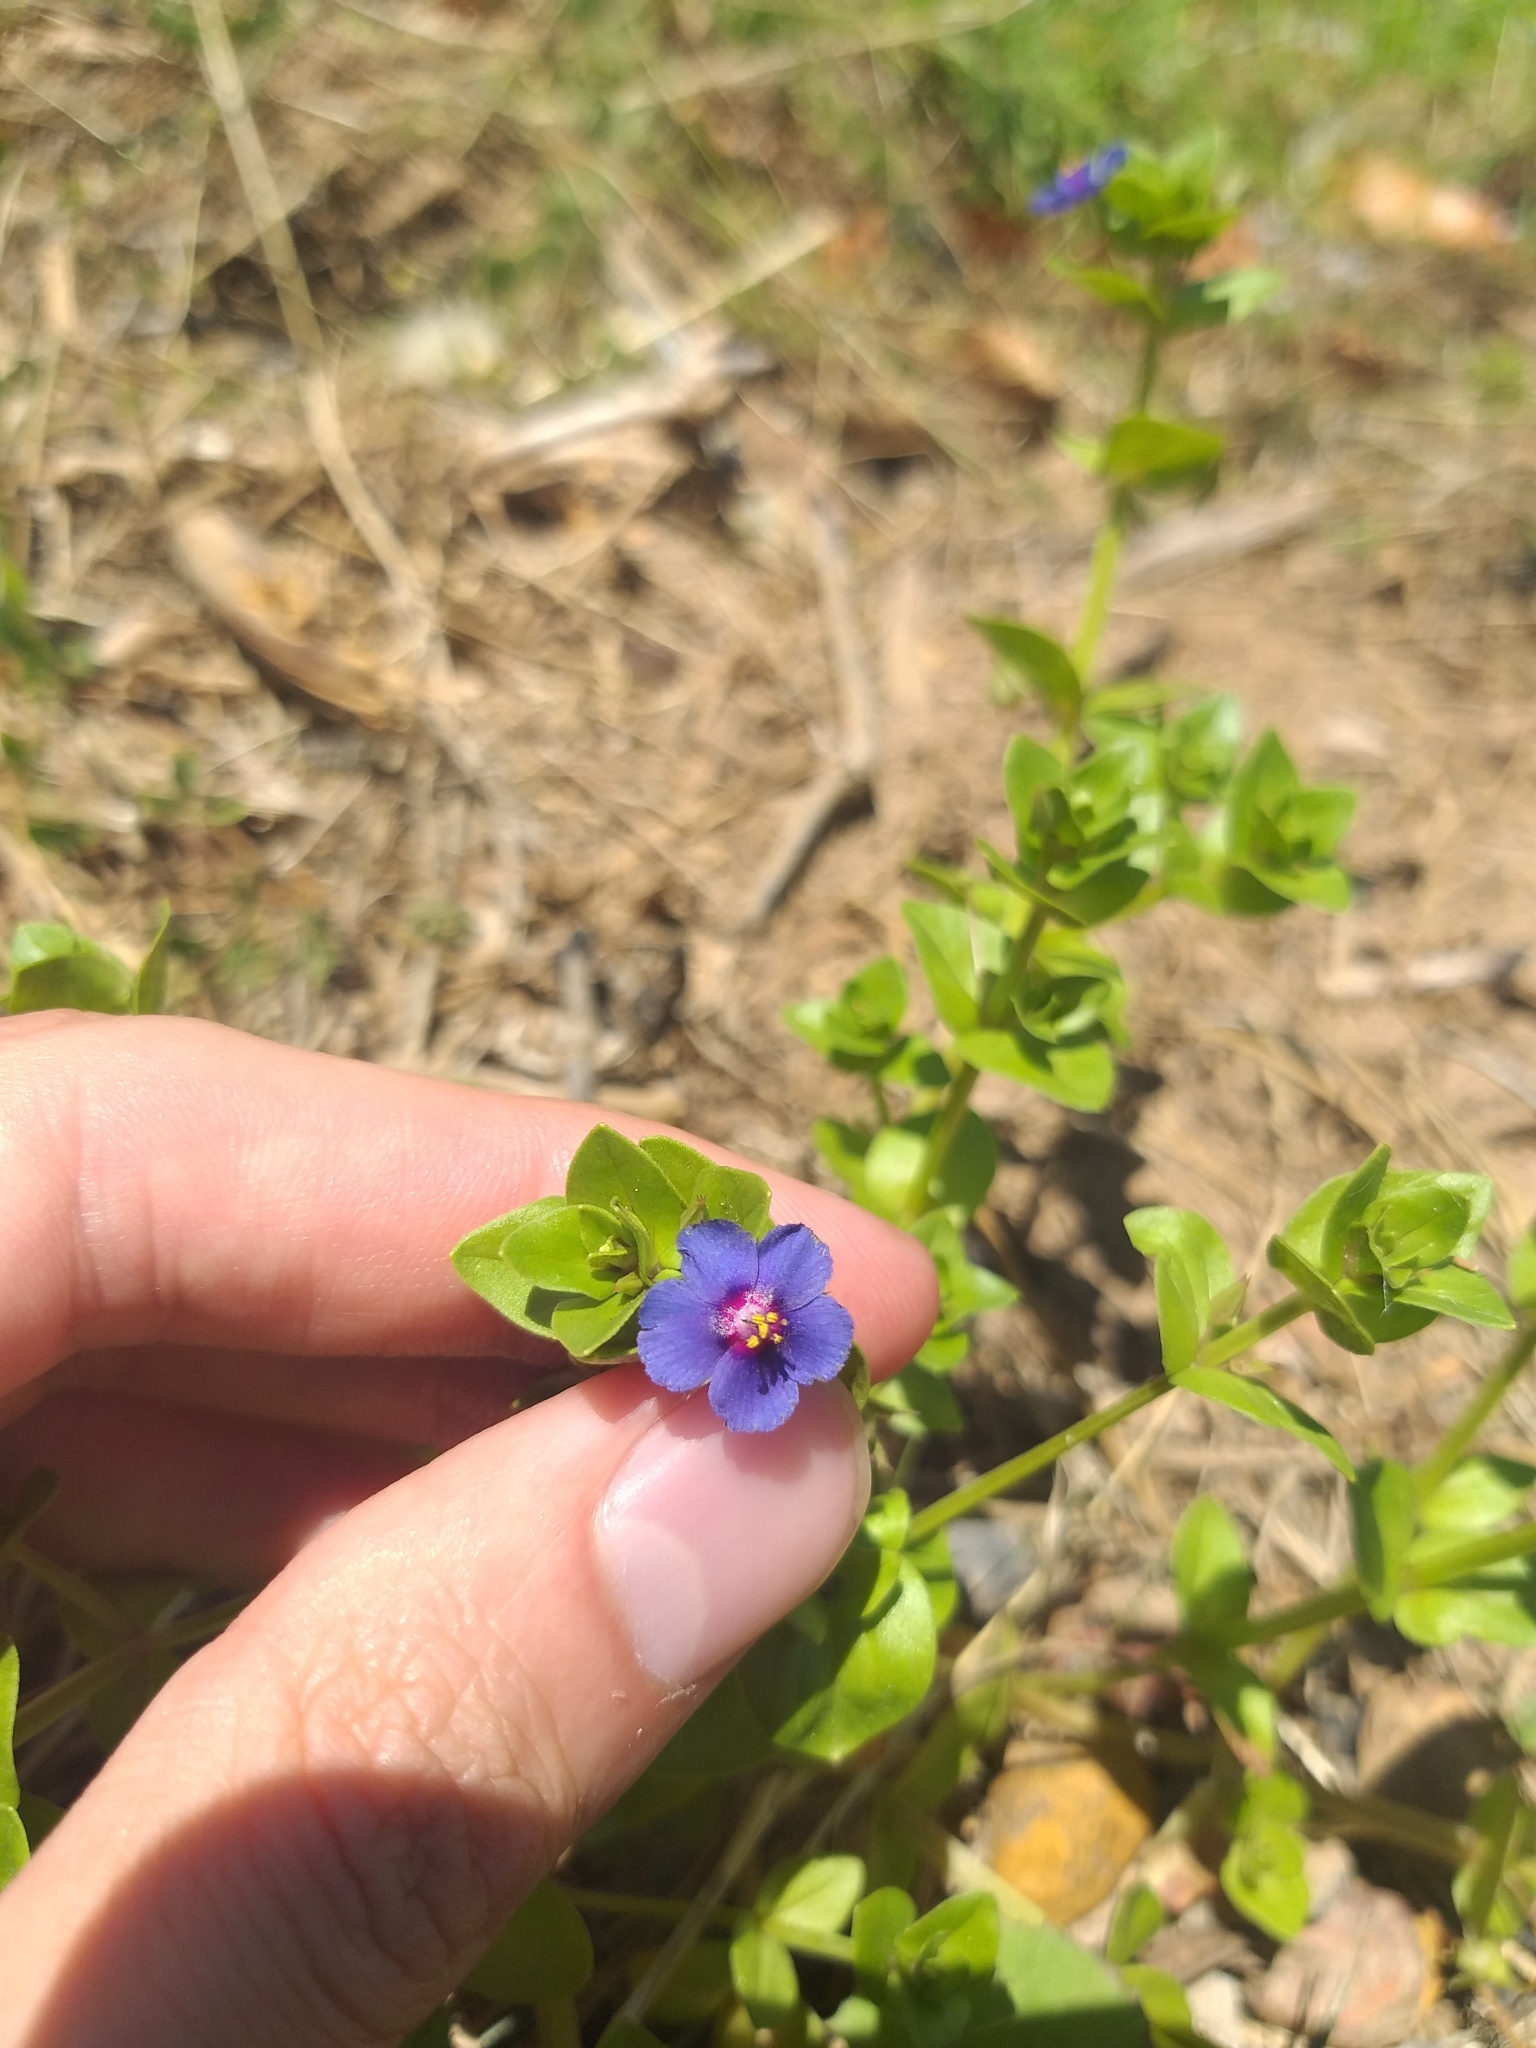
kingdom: Plantae
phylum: Tracheophyta
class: Magnoliopsida
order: Ericales
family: Primulaceae
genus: Lysimachia
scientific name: Lysimachia loeflingii
